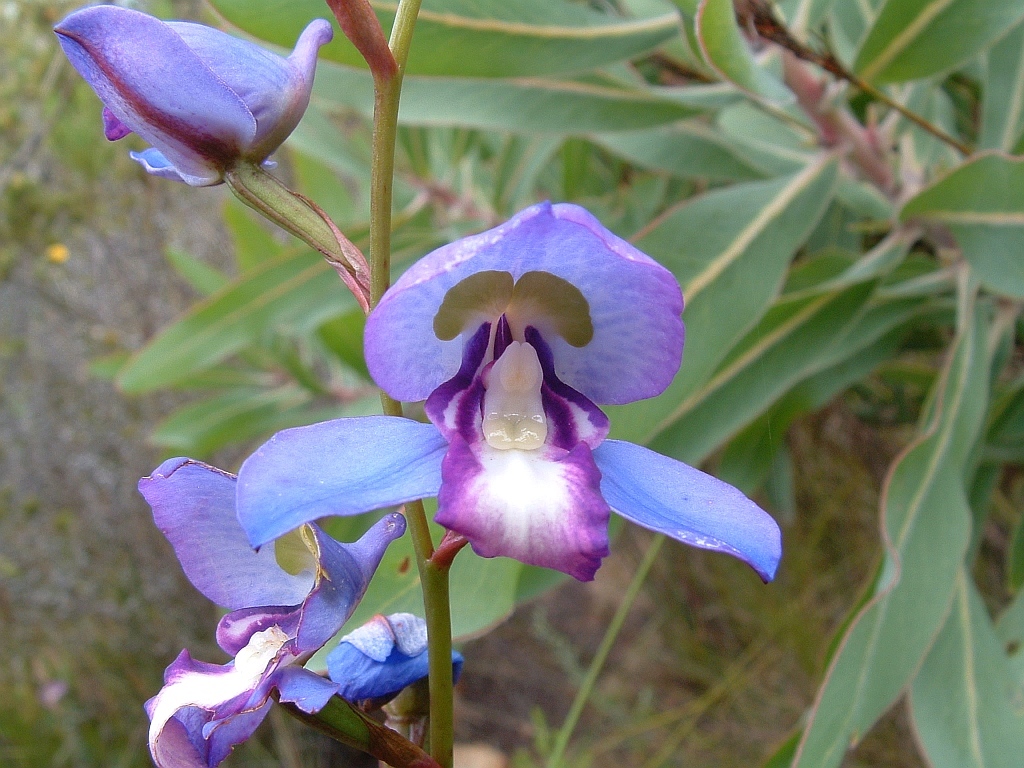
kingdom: Plantae
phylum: Tracheophyta
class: Liliopsida
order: Asparagales
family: Orchidaceae
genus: Disa
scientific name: Disa graminifolia
